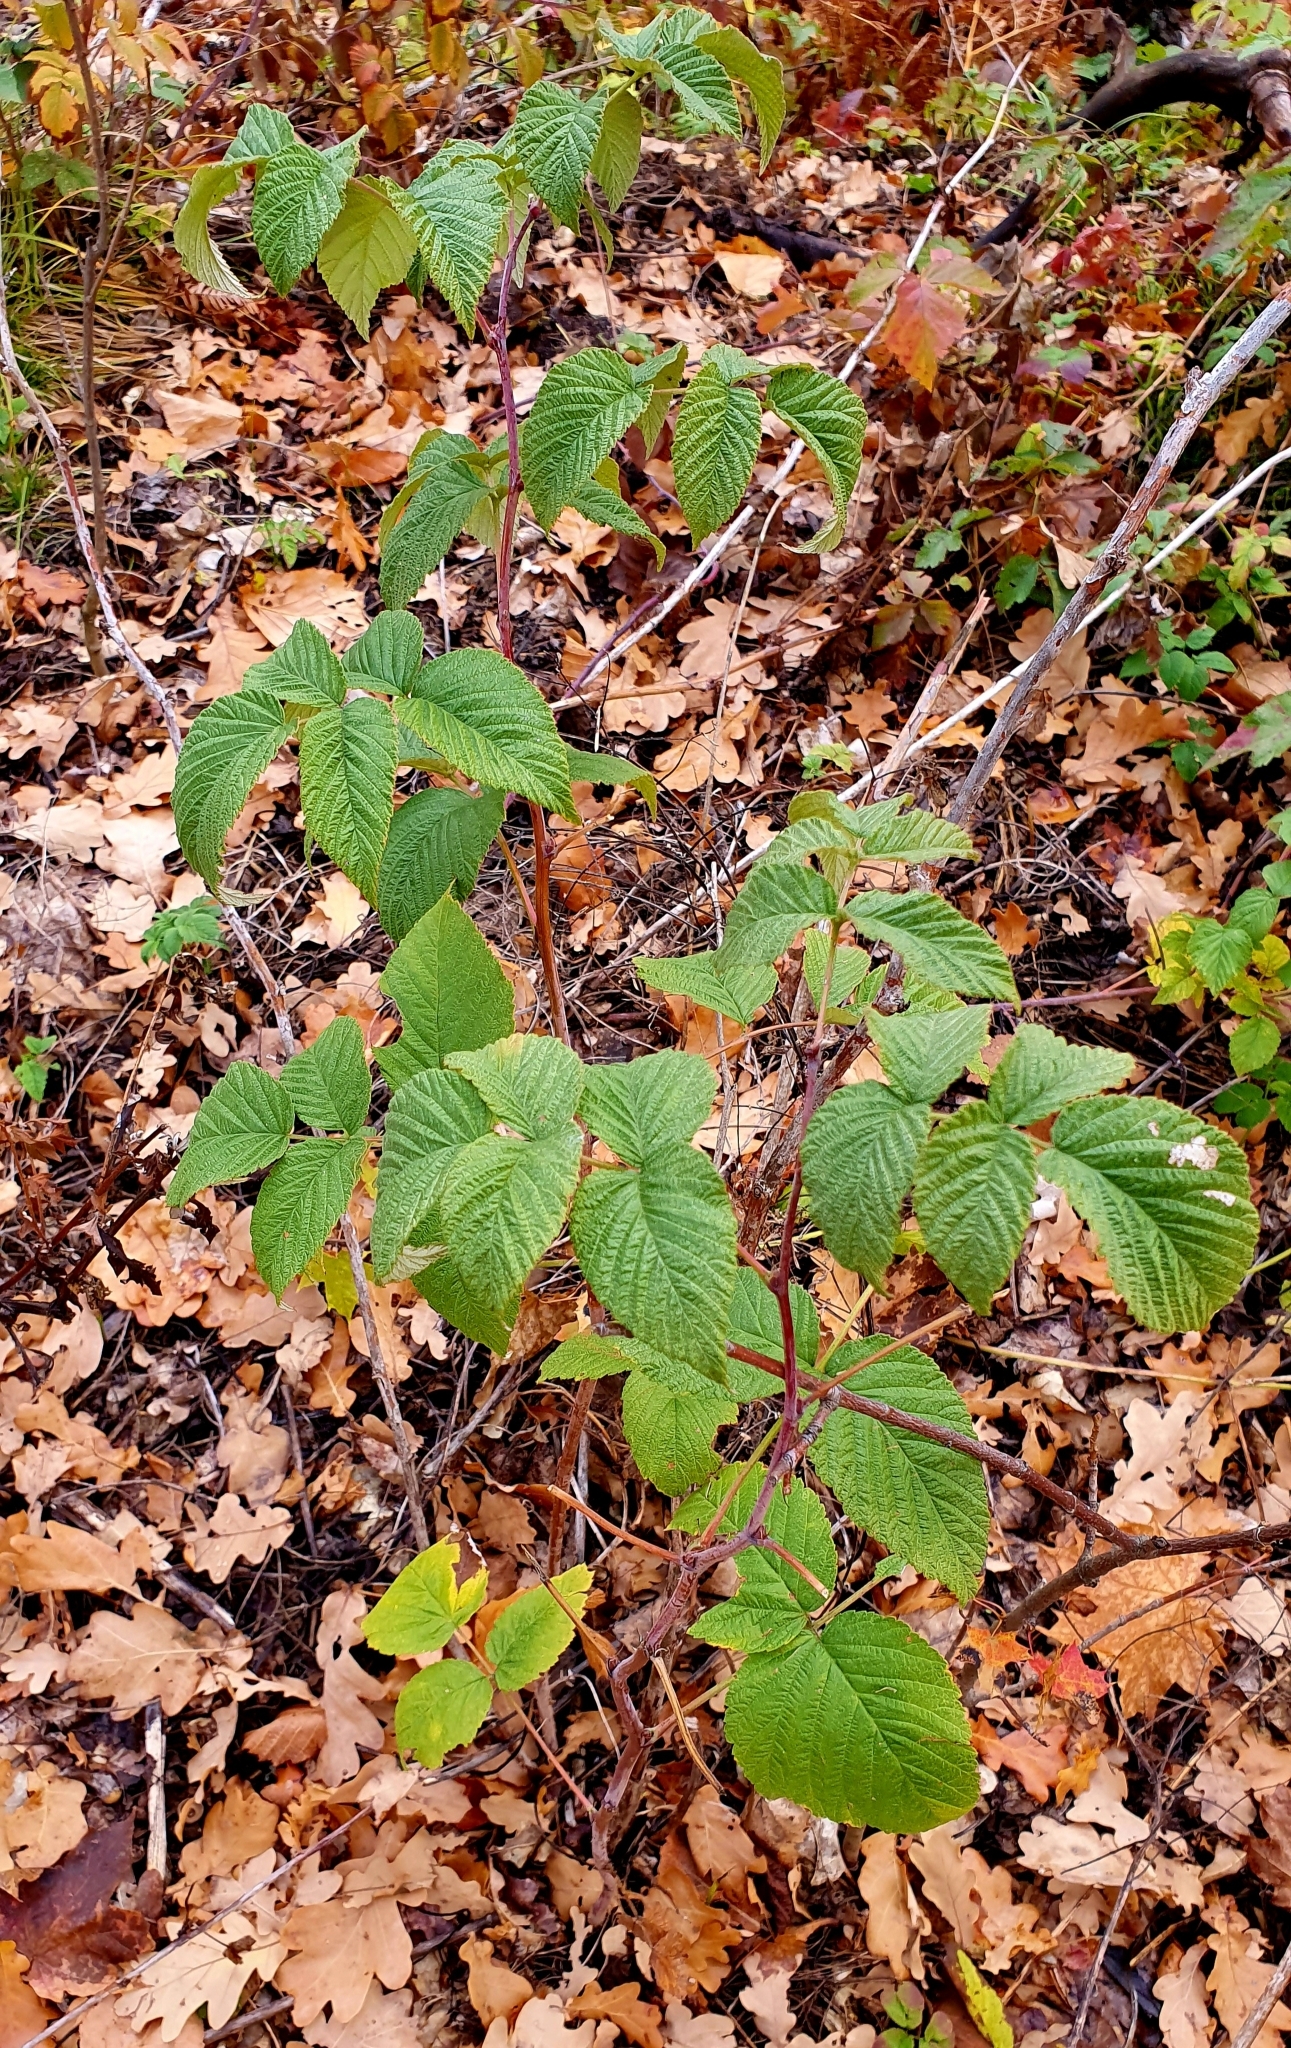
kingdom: Plantae
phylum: Tracheophyta
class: Magnoliopsida
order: Rosales
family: Rosaceae
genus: Rubus
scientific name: Rubus idaeus
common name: Raspberry
